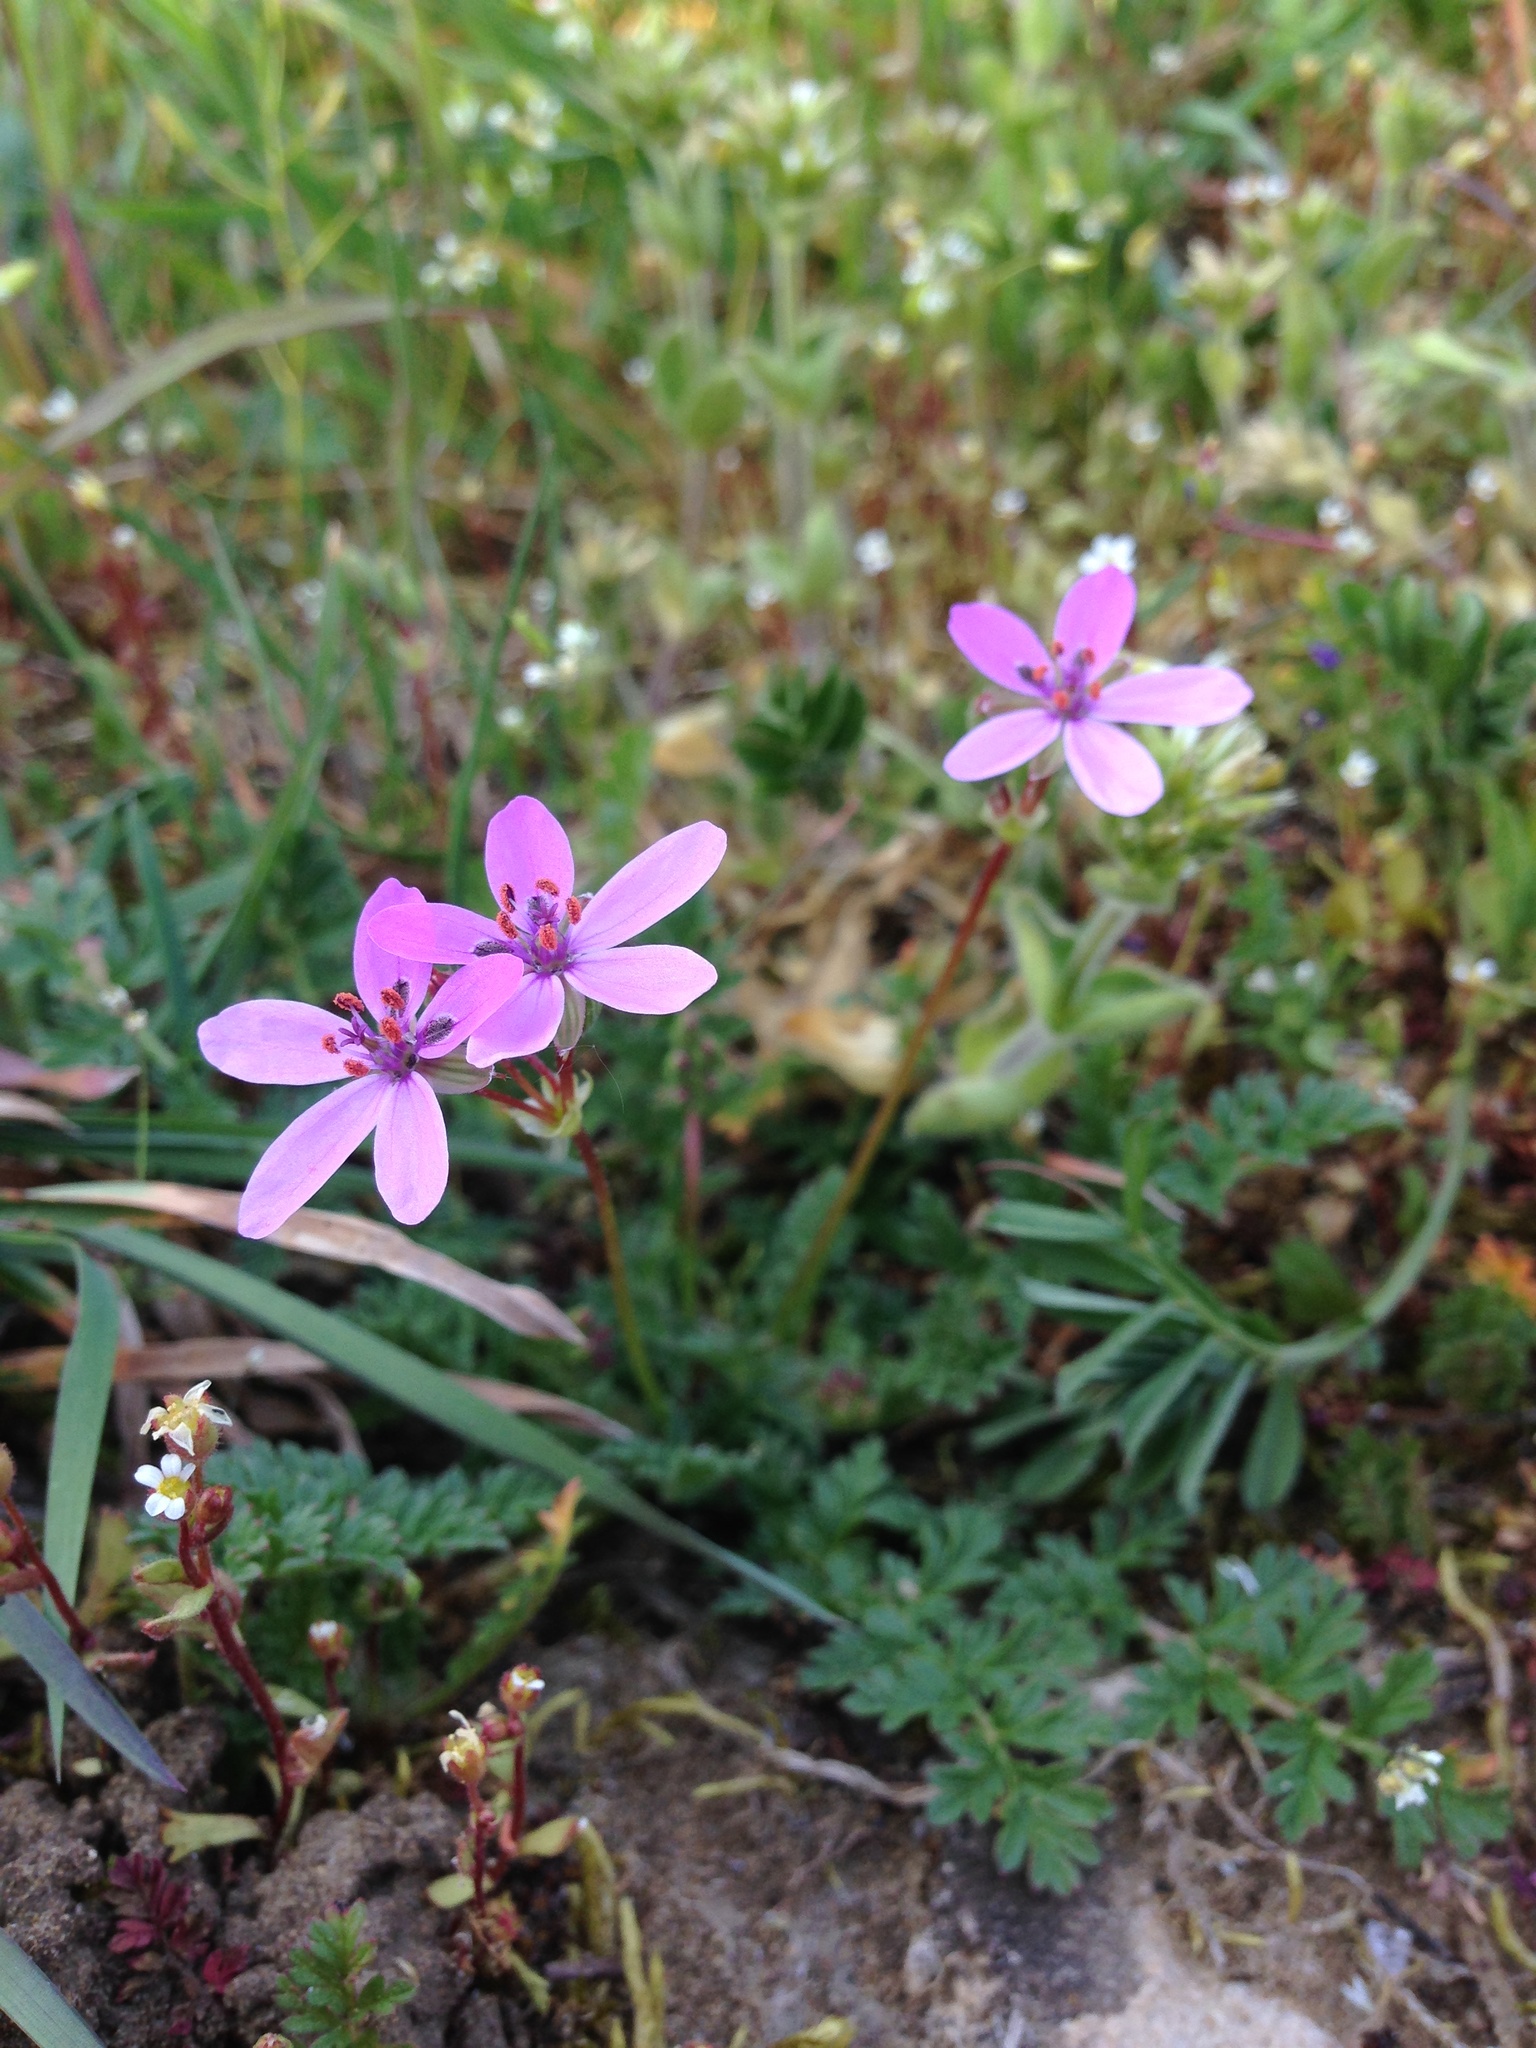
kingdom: Plantae
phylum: Tracheophyta
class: Magnoliopsida
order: Geraniales
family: Geraniaceae
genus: Erodium
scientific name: Erodium cicutarium
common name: Common stork's-bill
